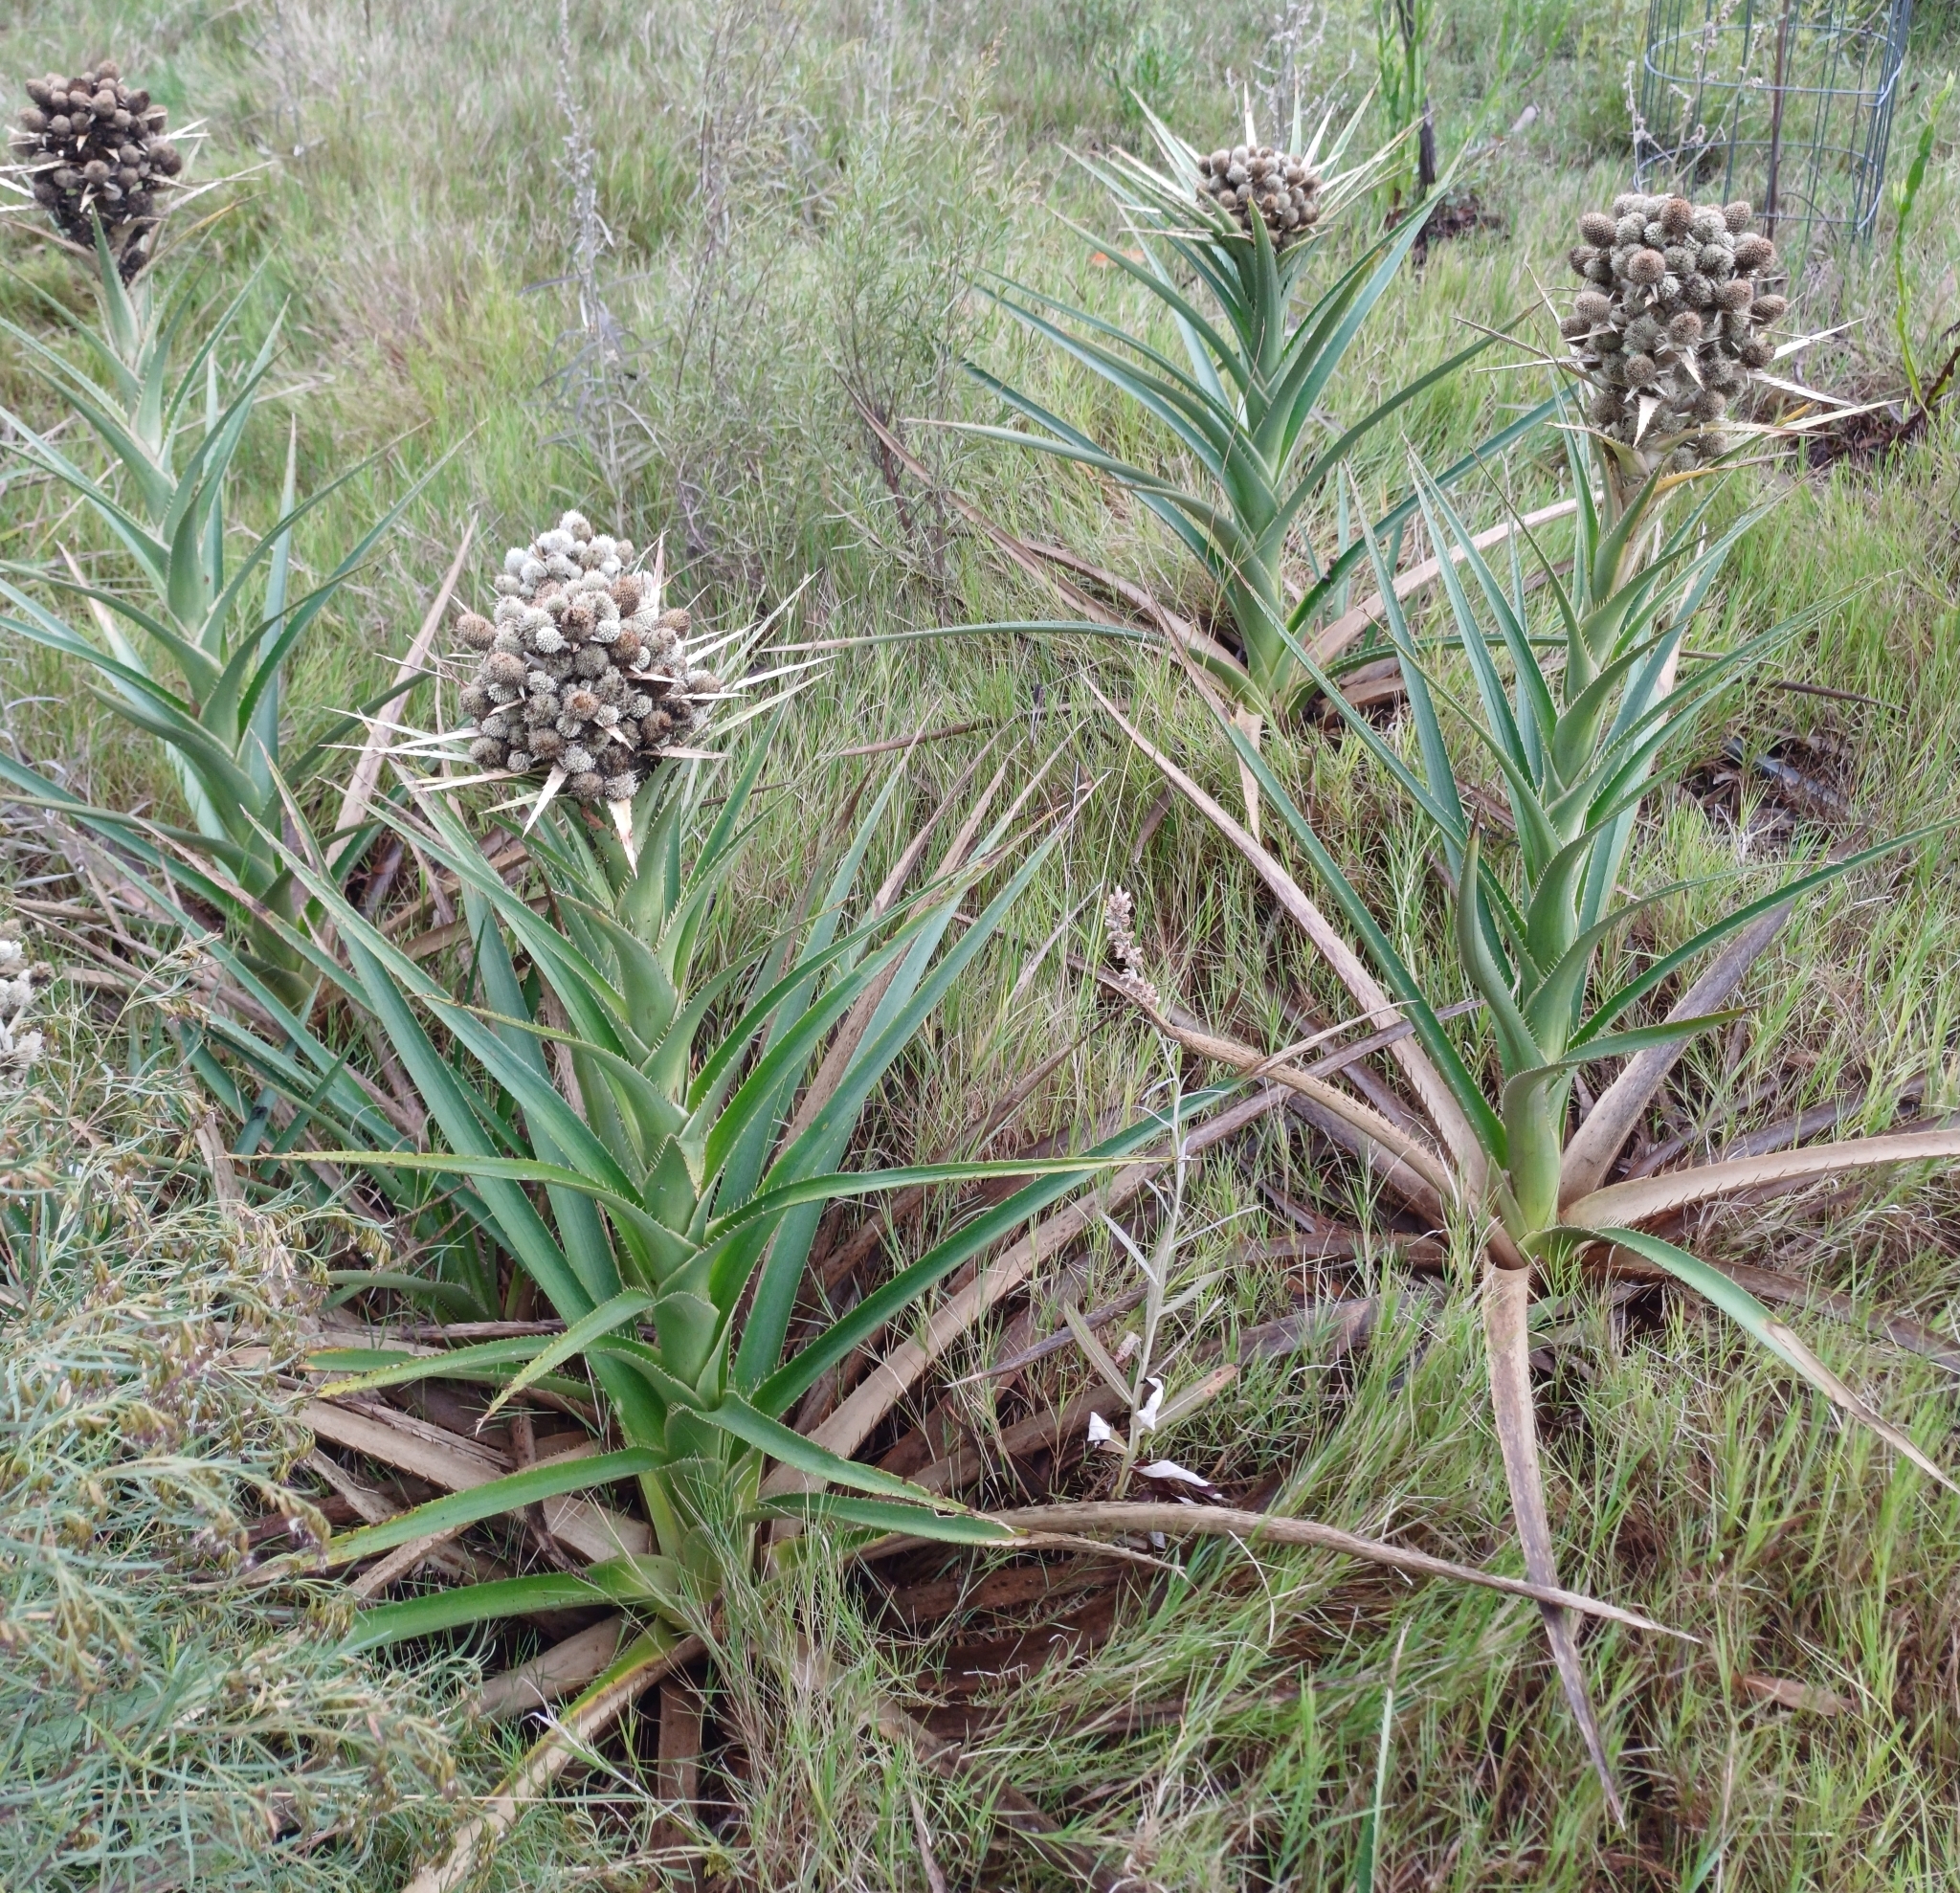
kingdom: Plantae
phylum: Tracheophyta
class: Magnoliopsida
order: Apiales
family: Apiaceae
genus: Eryngium
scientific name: Eryngium eburneum
